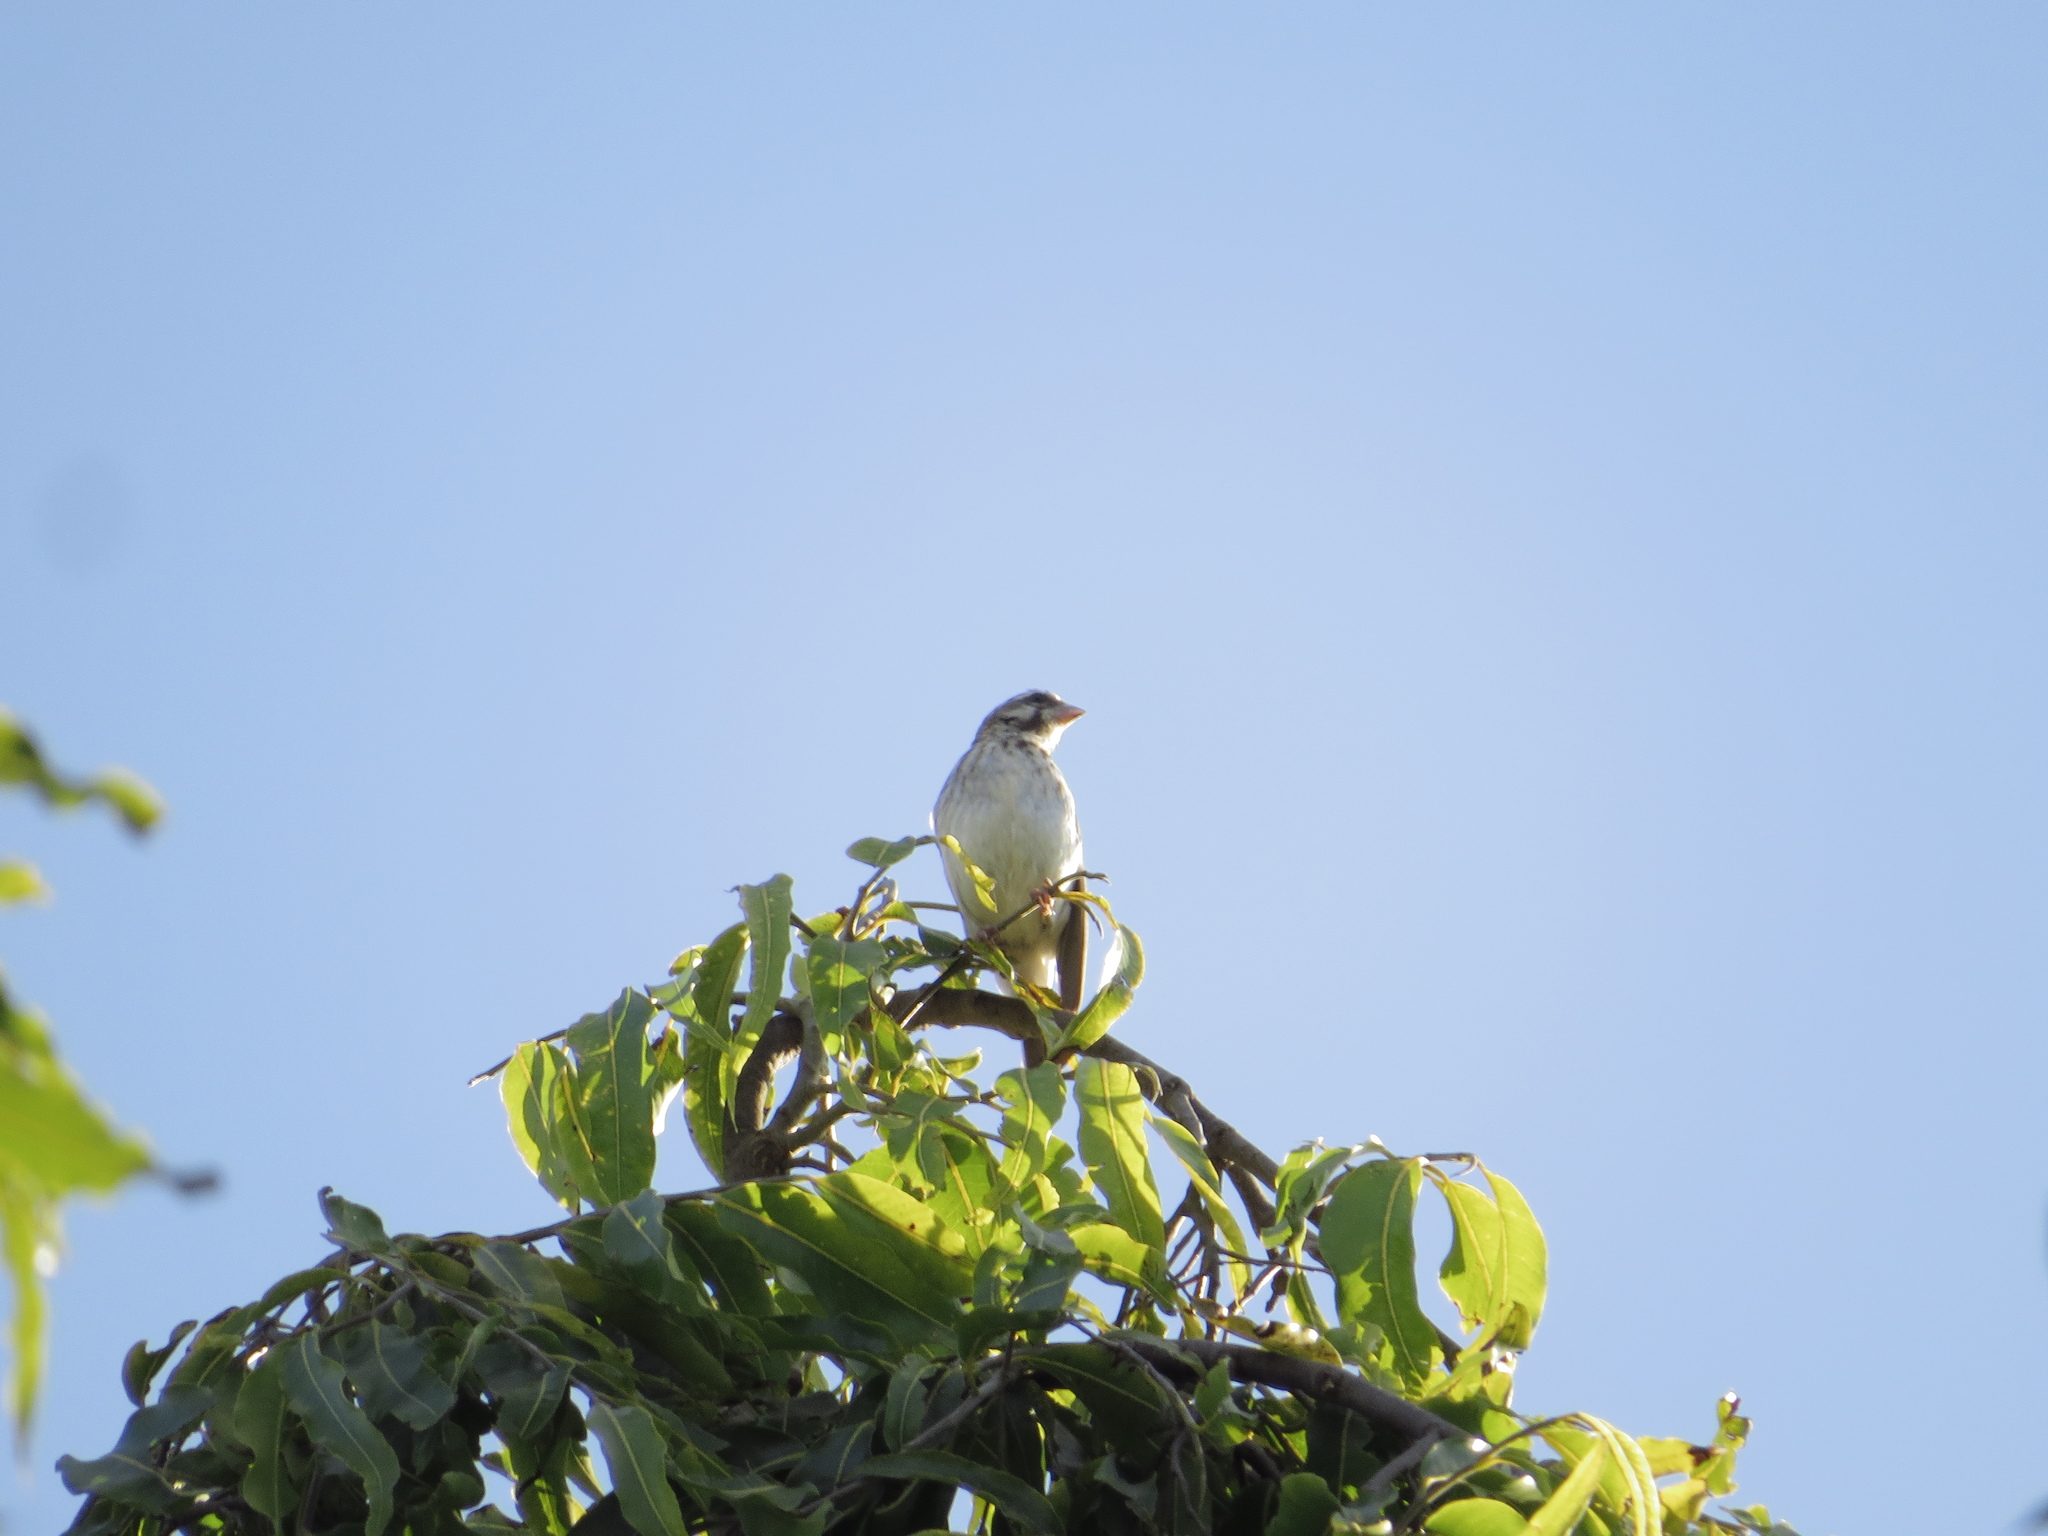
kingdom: Animalia
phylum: Chordata
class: Aves
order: Passeriformes
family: Fringillidae
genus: Crithagra
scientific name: Crithagra reichenowi
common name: Reichenow's seedeater
